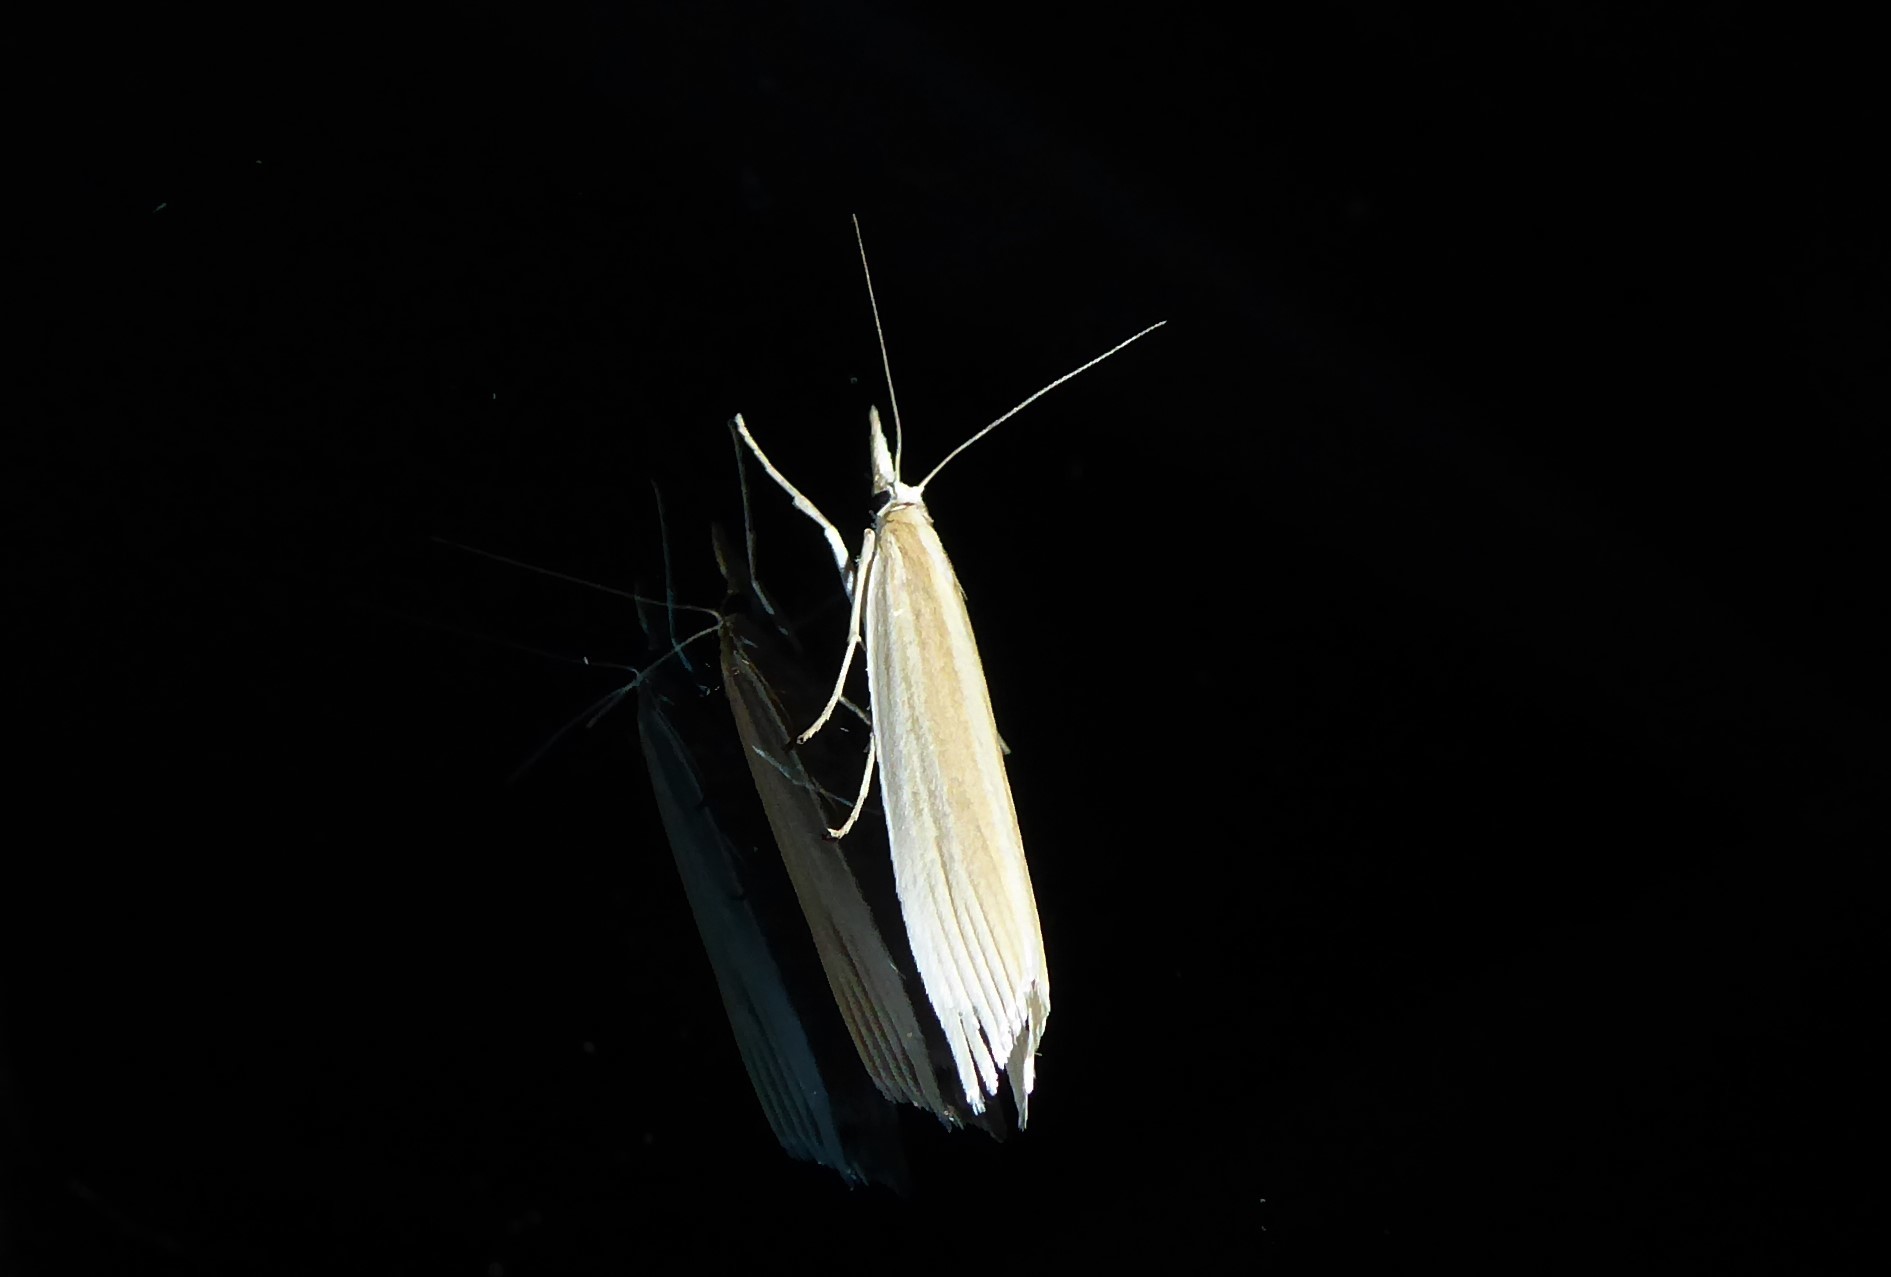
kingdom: Animalia
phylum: Arthropoda
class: Insecta
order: Lepidoptera
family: Crambidae
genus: Orocrambus
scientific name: Orocrambus angustipennis
